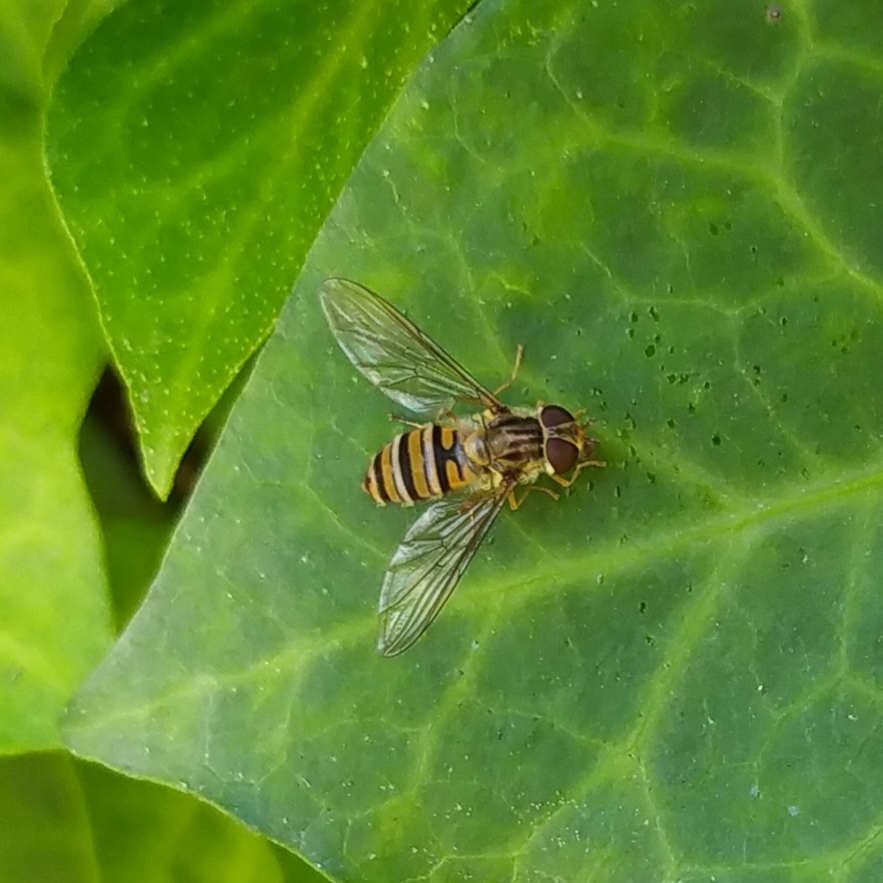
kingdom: Animalia
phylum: Arthropoda
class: Insecta
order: Diptera
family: Syrphidae
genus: Episyrphus
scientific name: Episyrphus balteatus
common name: Marmalade hoverfly
